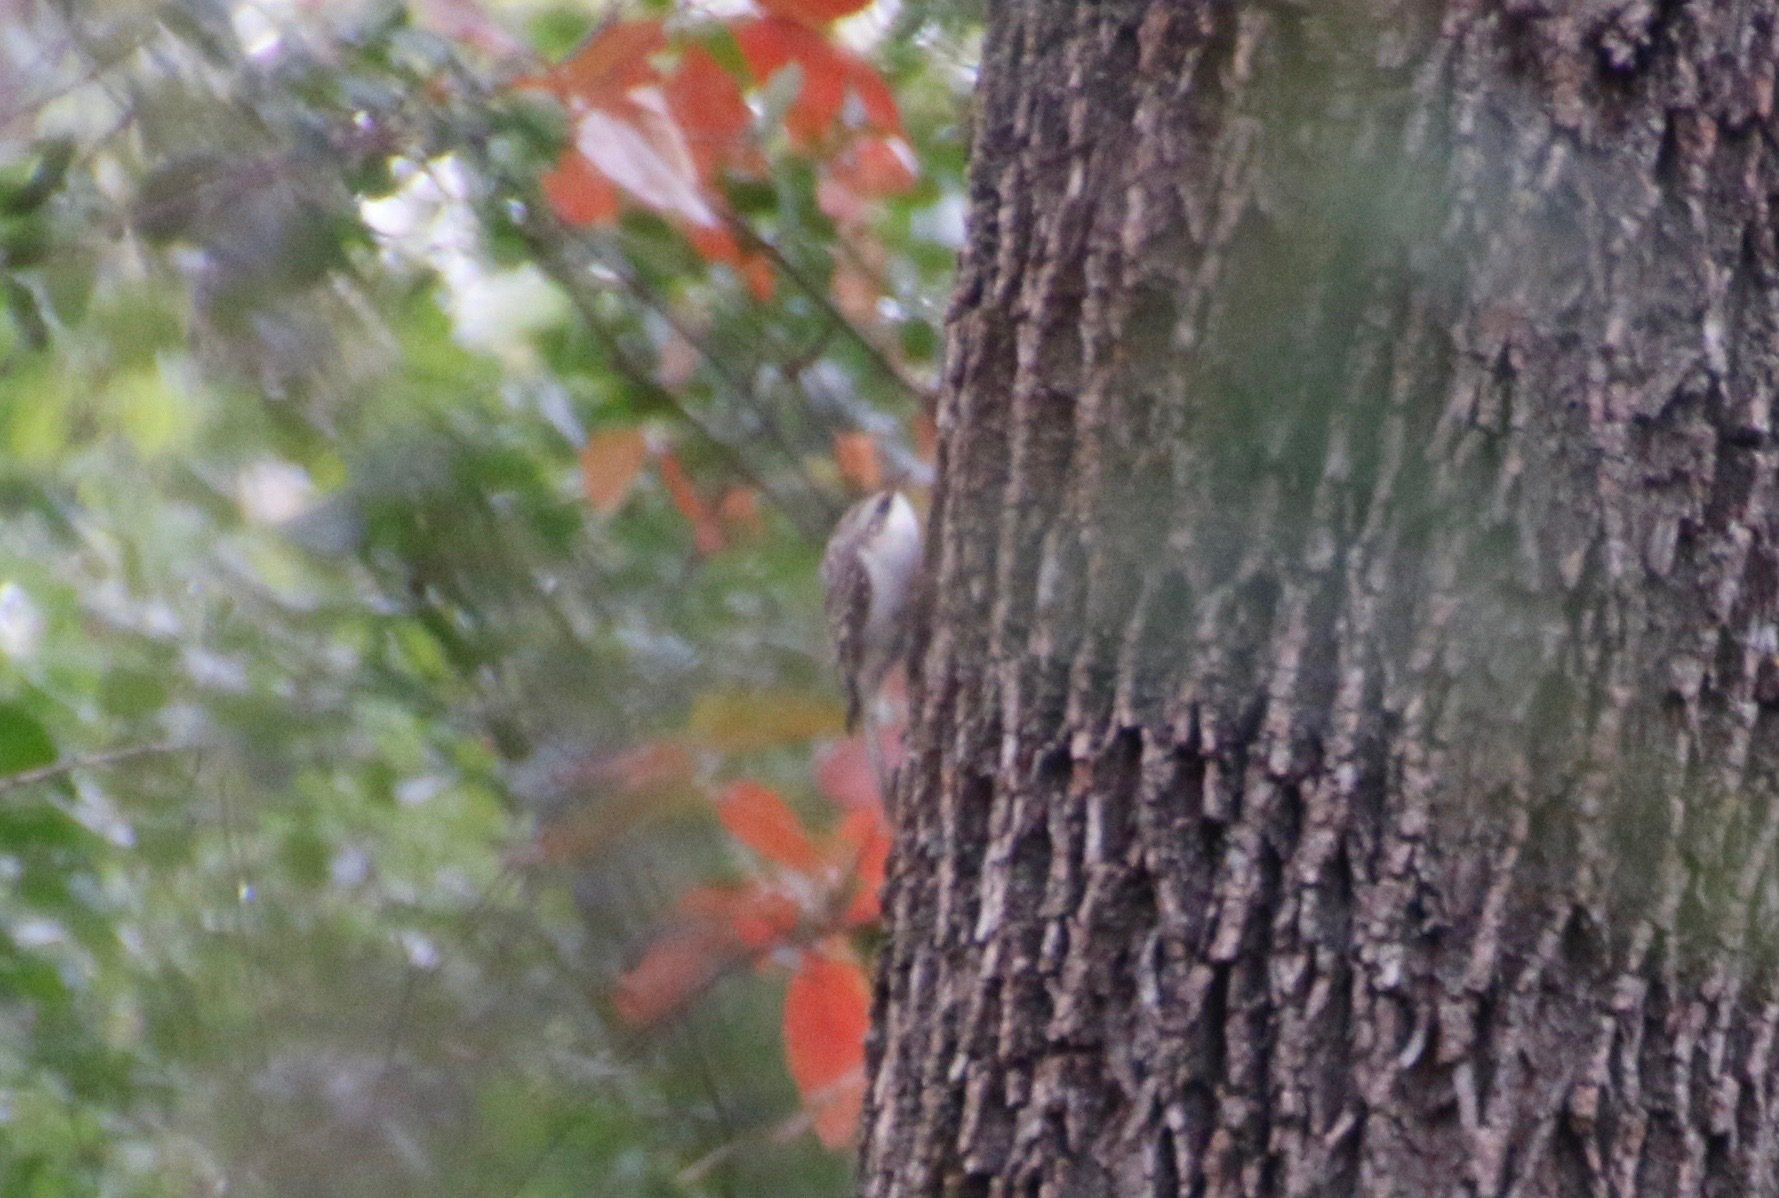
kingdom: Animalia
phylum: Chordata
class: Aves
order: Passeriformes
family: Certhiidae
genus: Certhia
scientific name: Certhia americana
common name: Brown creeper
